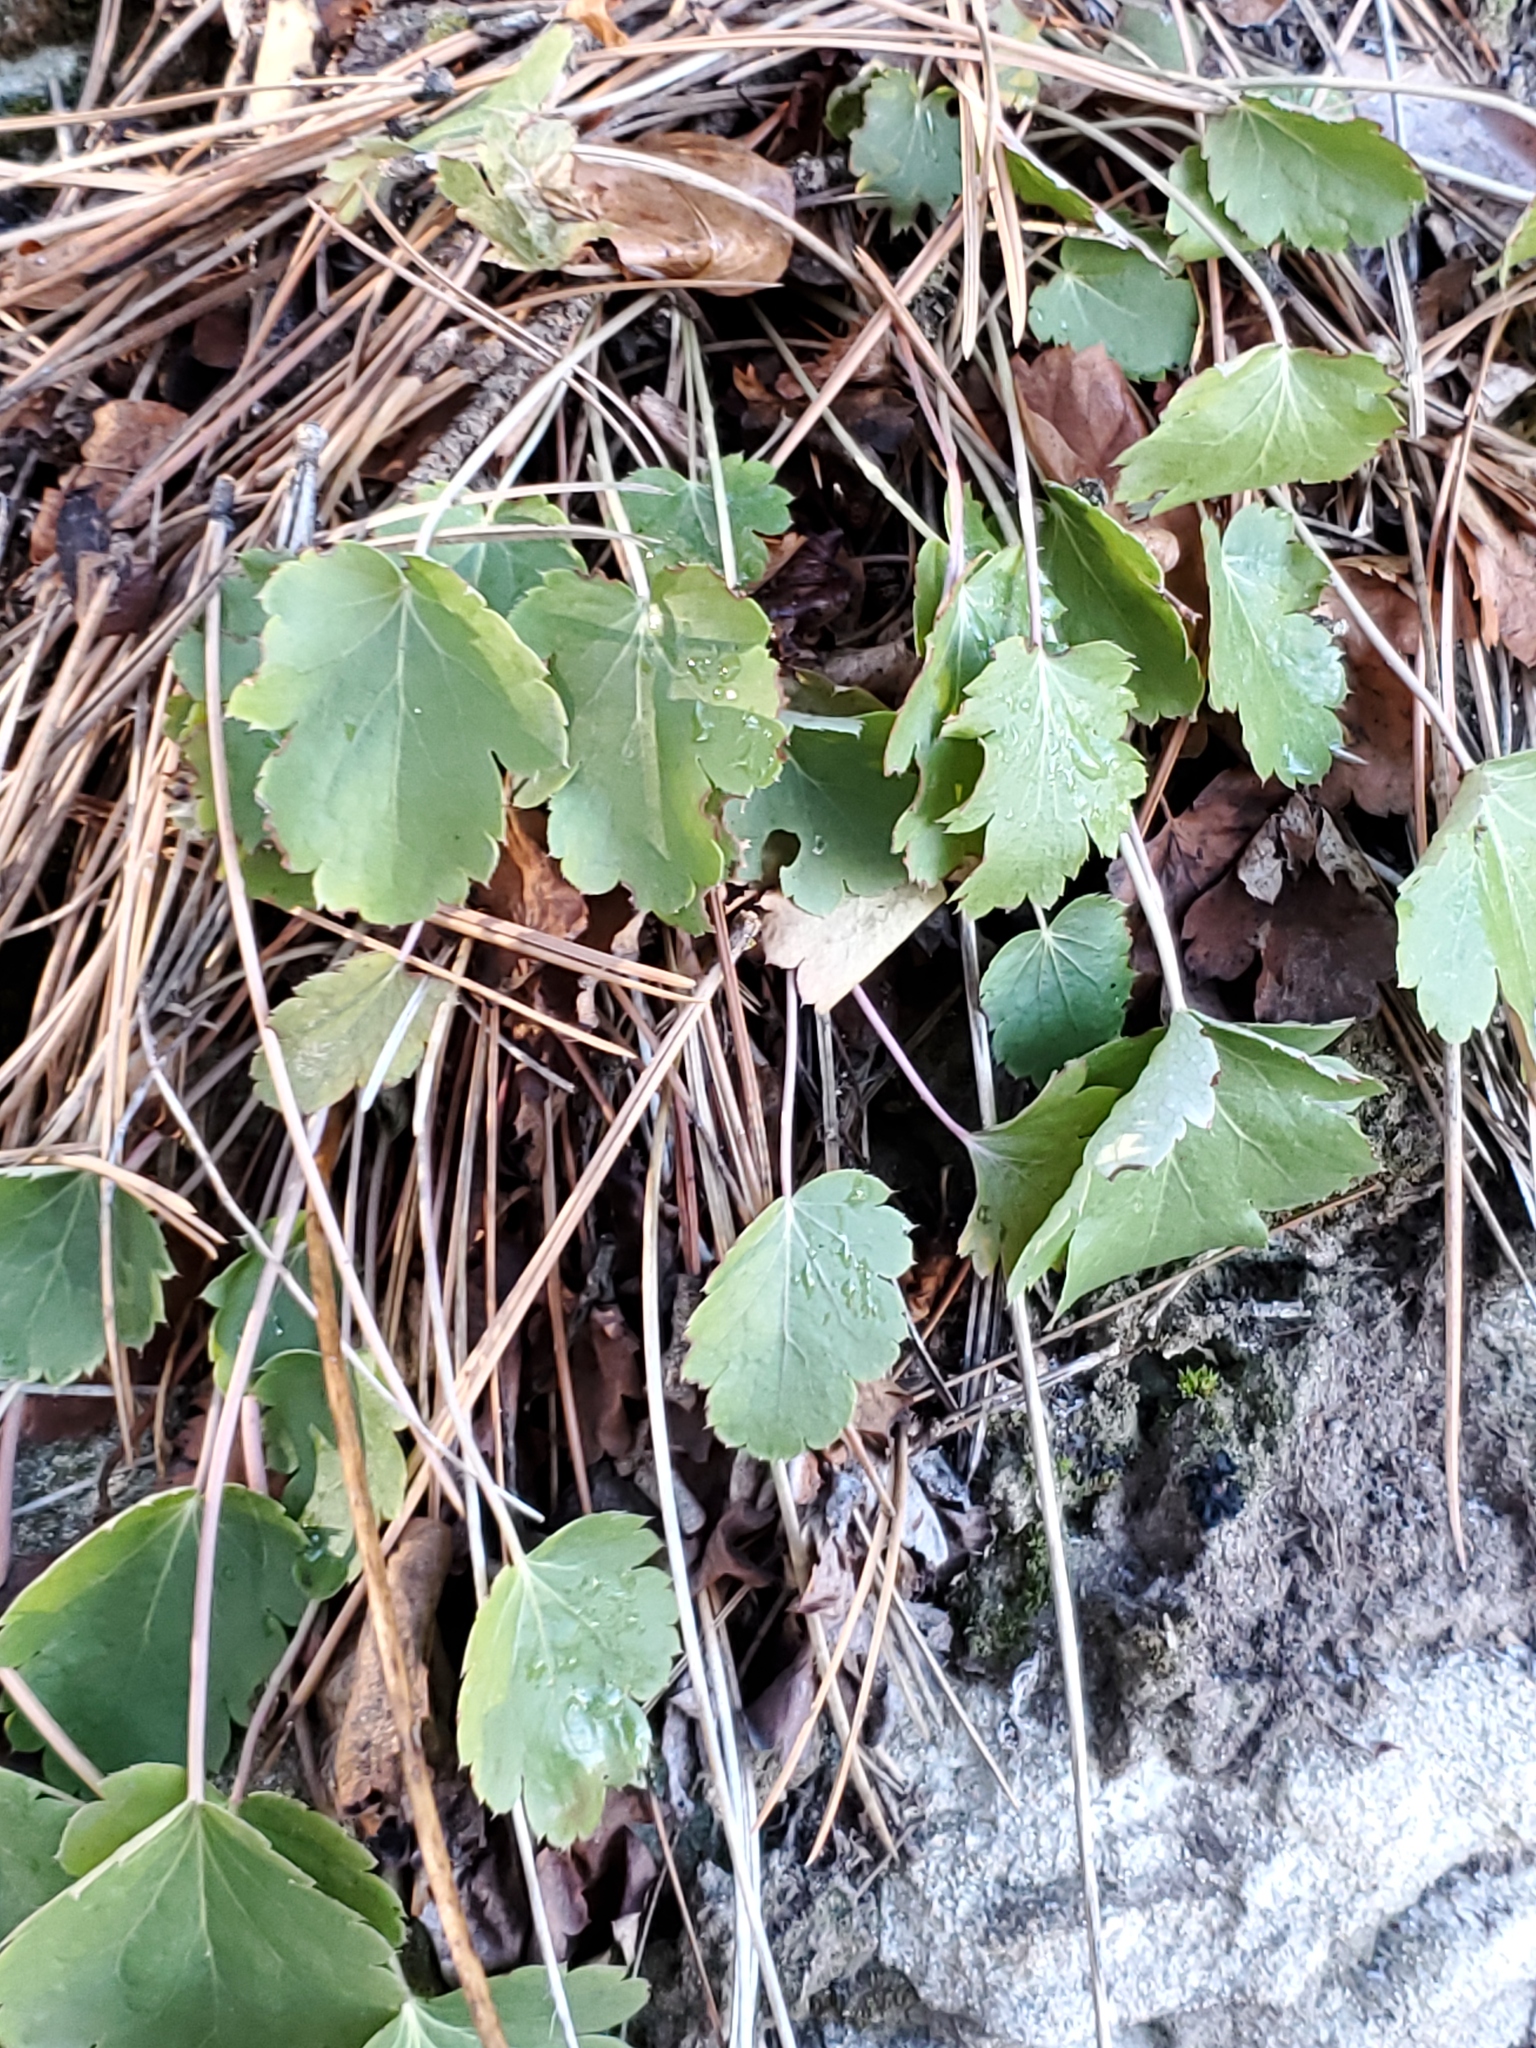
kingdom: Plantae
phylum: Tracheophyta
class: Magnoliopsida
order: Saxifragales
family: Saxifragaceae
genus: Heuchera
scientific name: Heuchera cylindrica
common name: Mat alumroot
